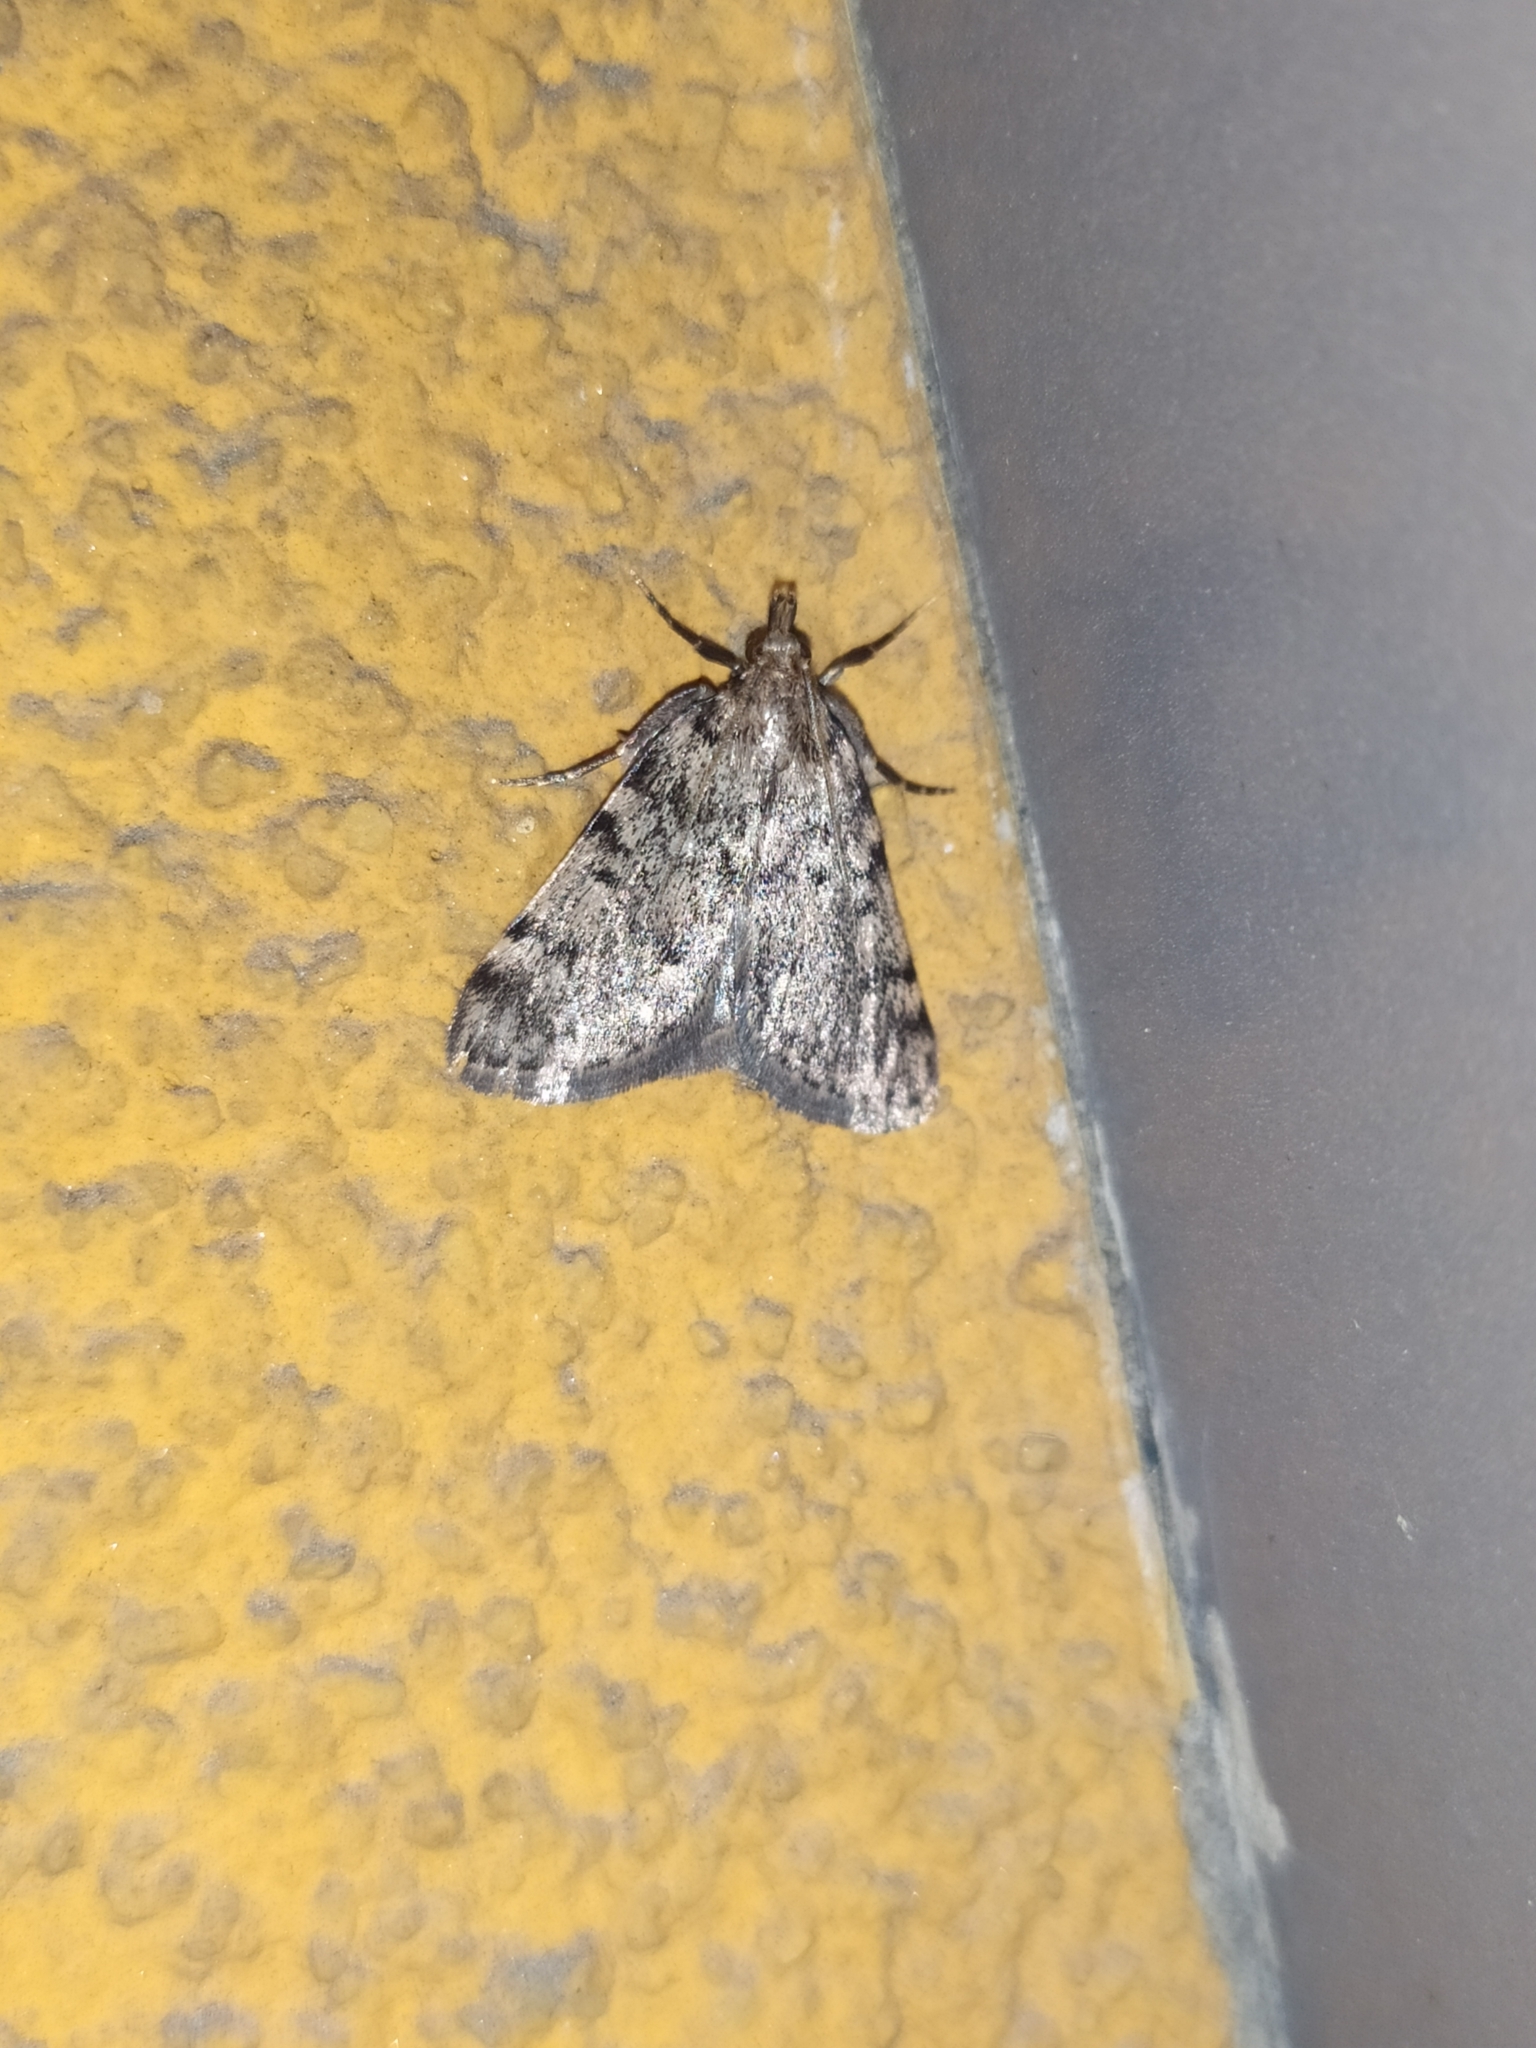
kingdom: Animalia
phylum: Arthropoda
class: Insecta
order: Lepidoptera
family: Pyralidae
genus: Aglossa
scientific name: Aglossa pinguinalis
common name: Large tabby
